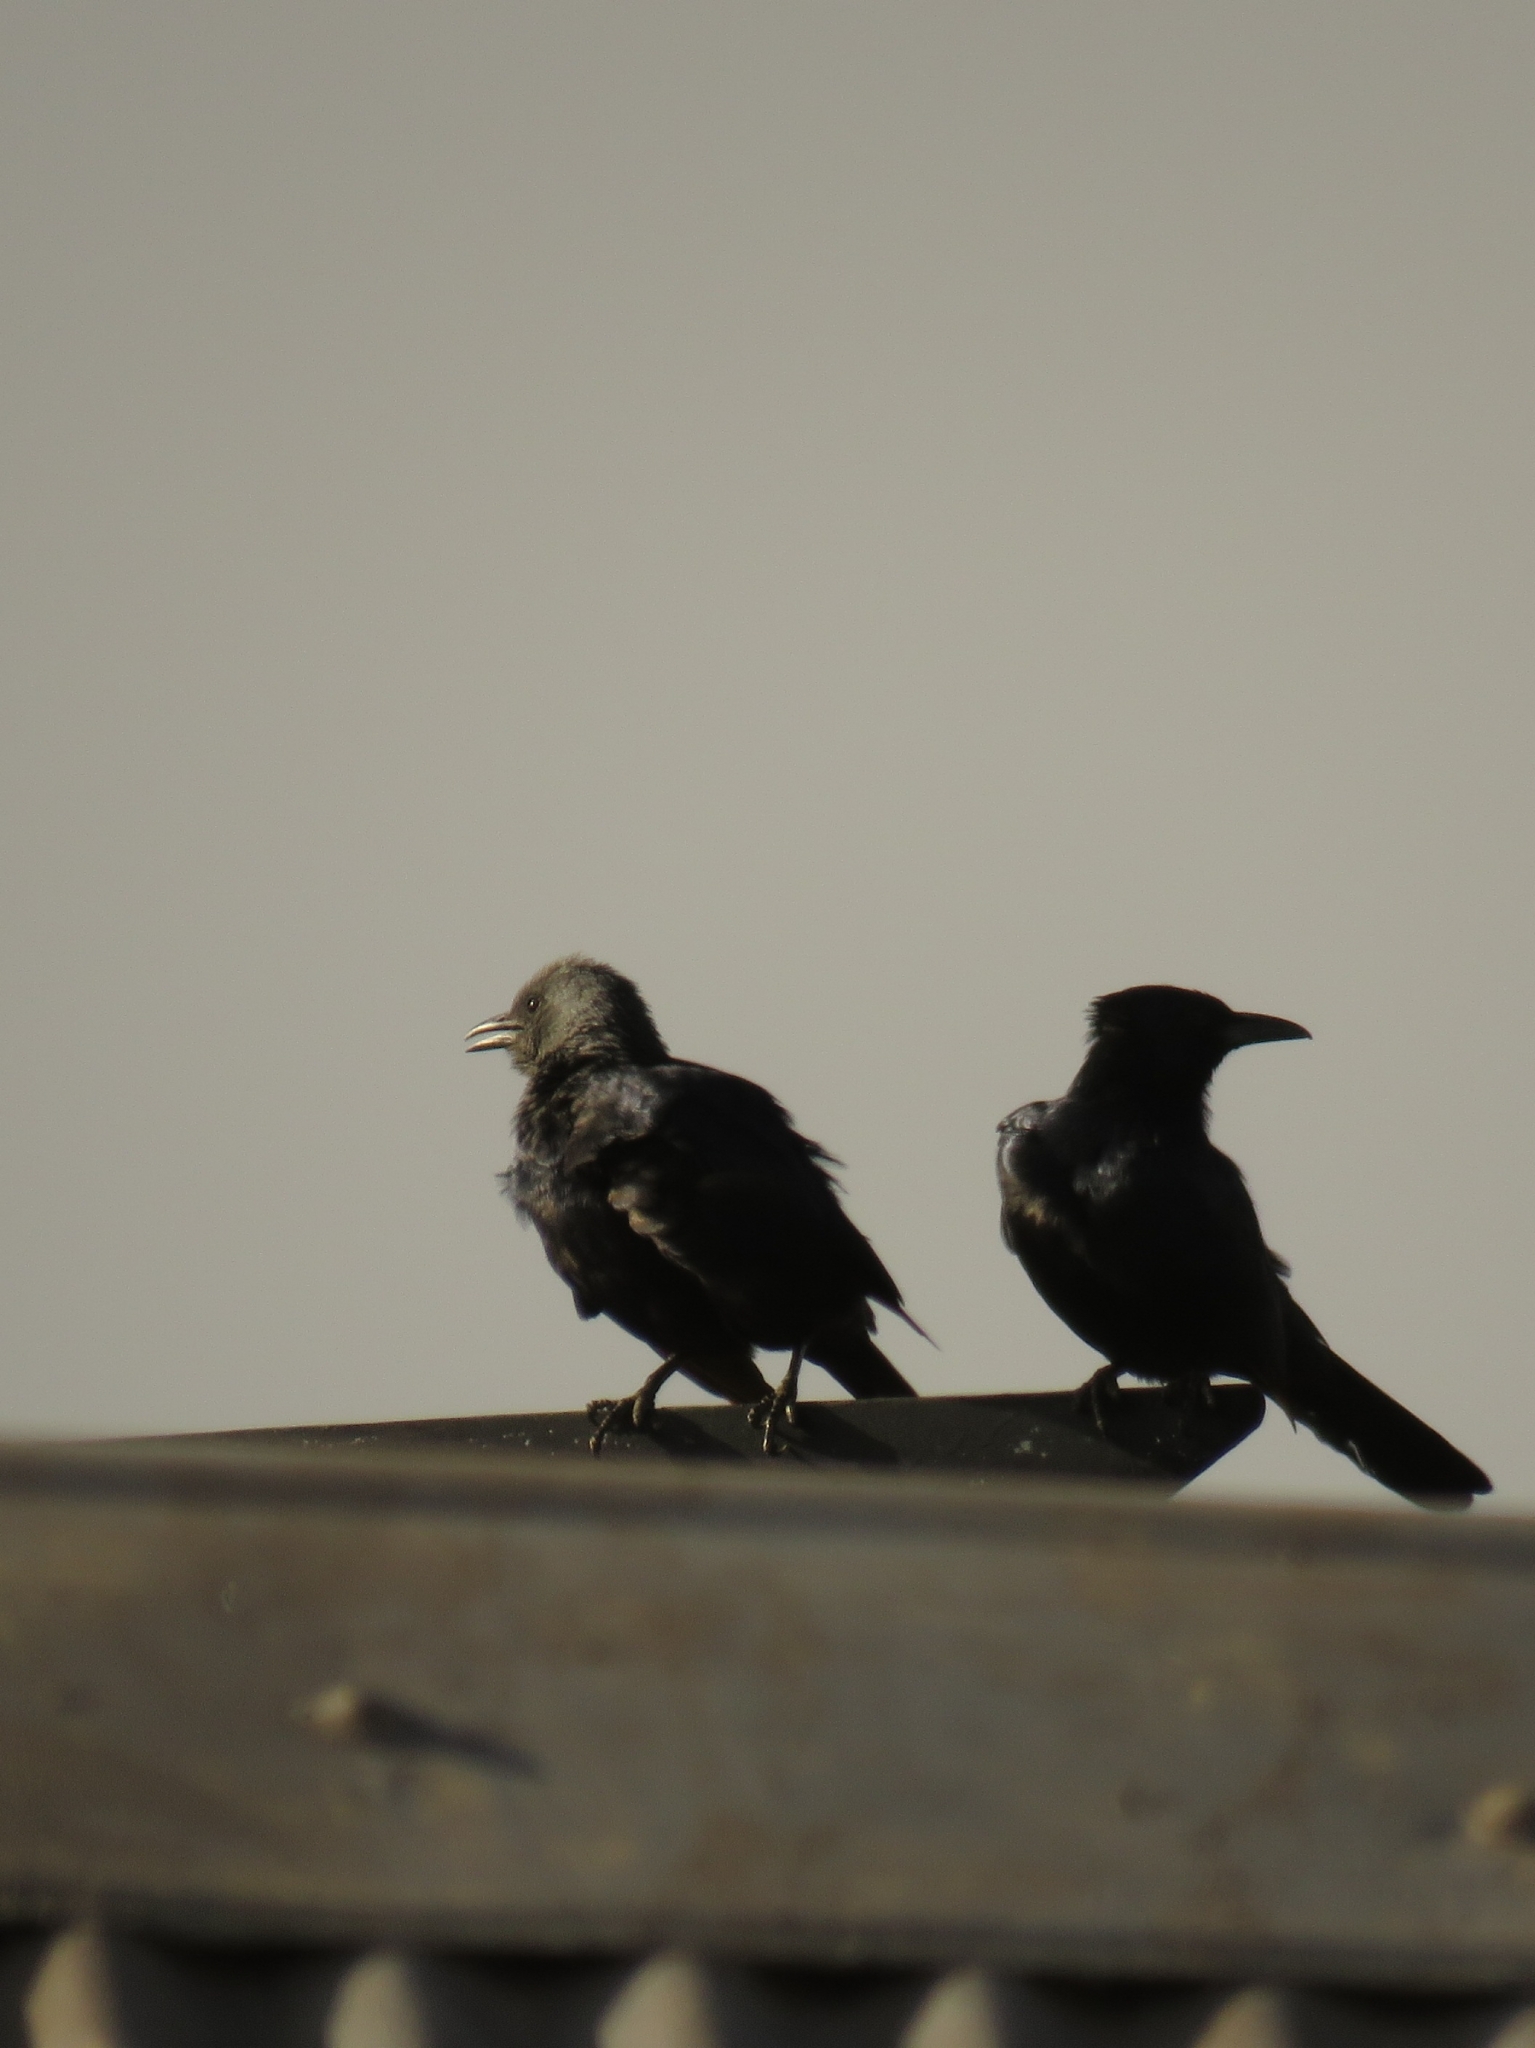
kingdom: Animalia
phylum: Chordata
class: Aves
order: Passeriformes
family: Sturnidae
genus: Onychognathus
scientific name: Onychognathus morio
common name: Red-winged starling
